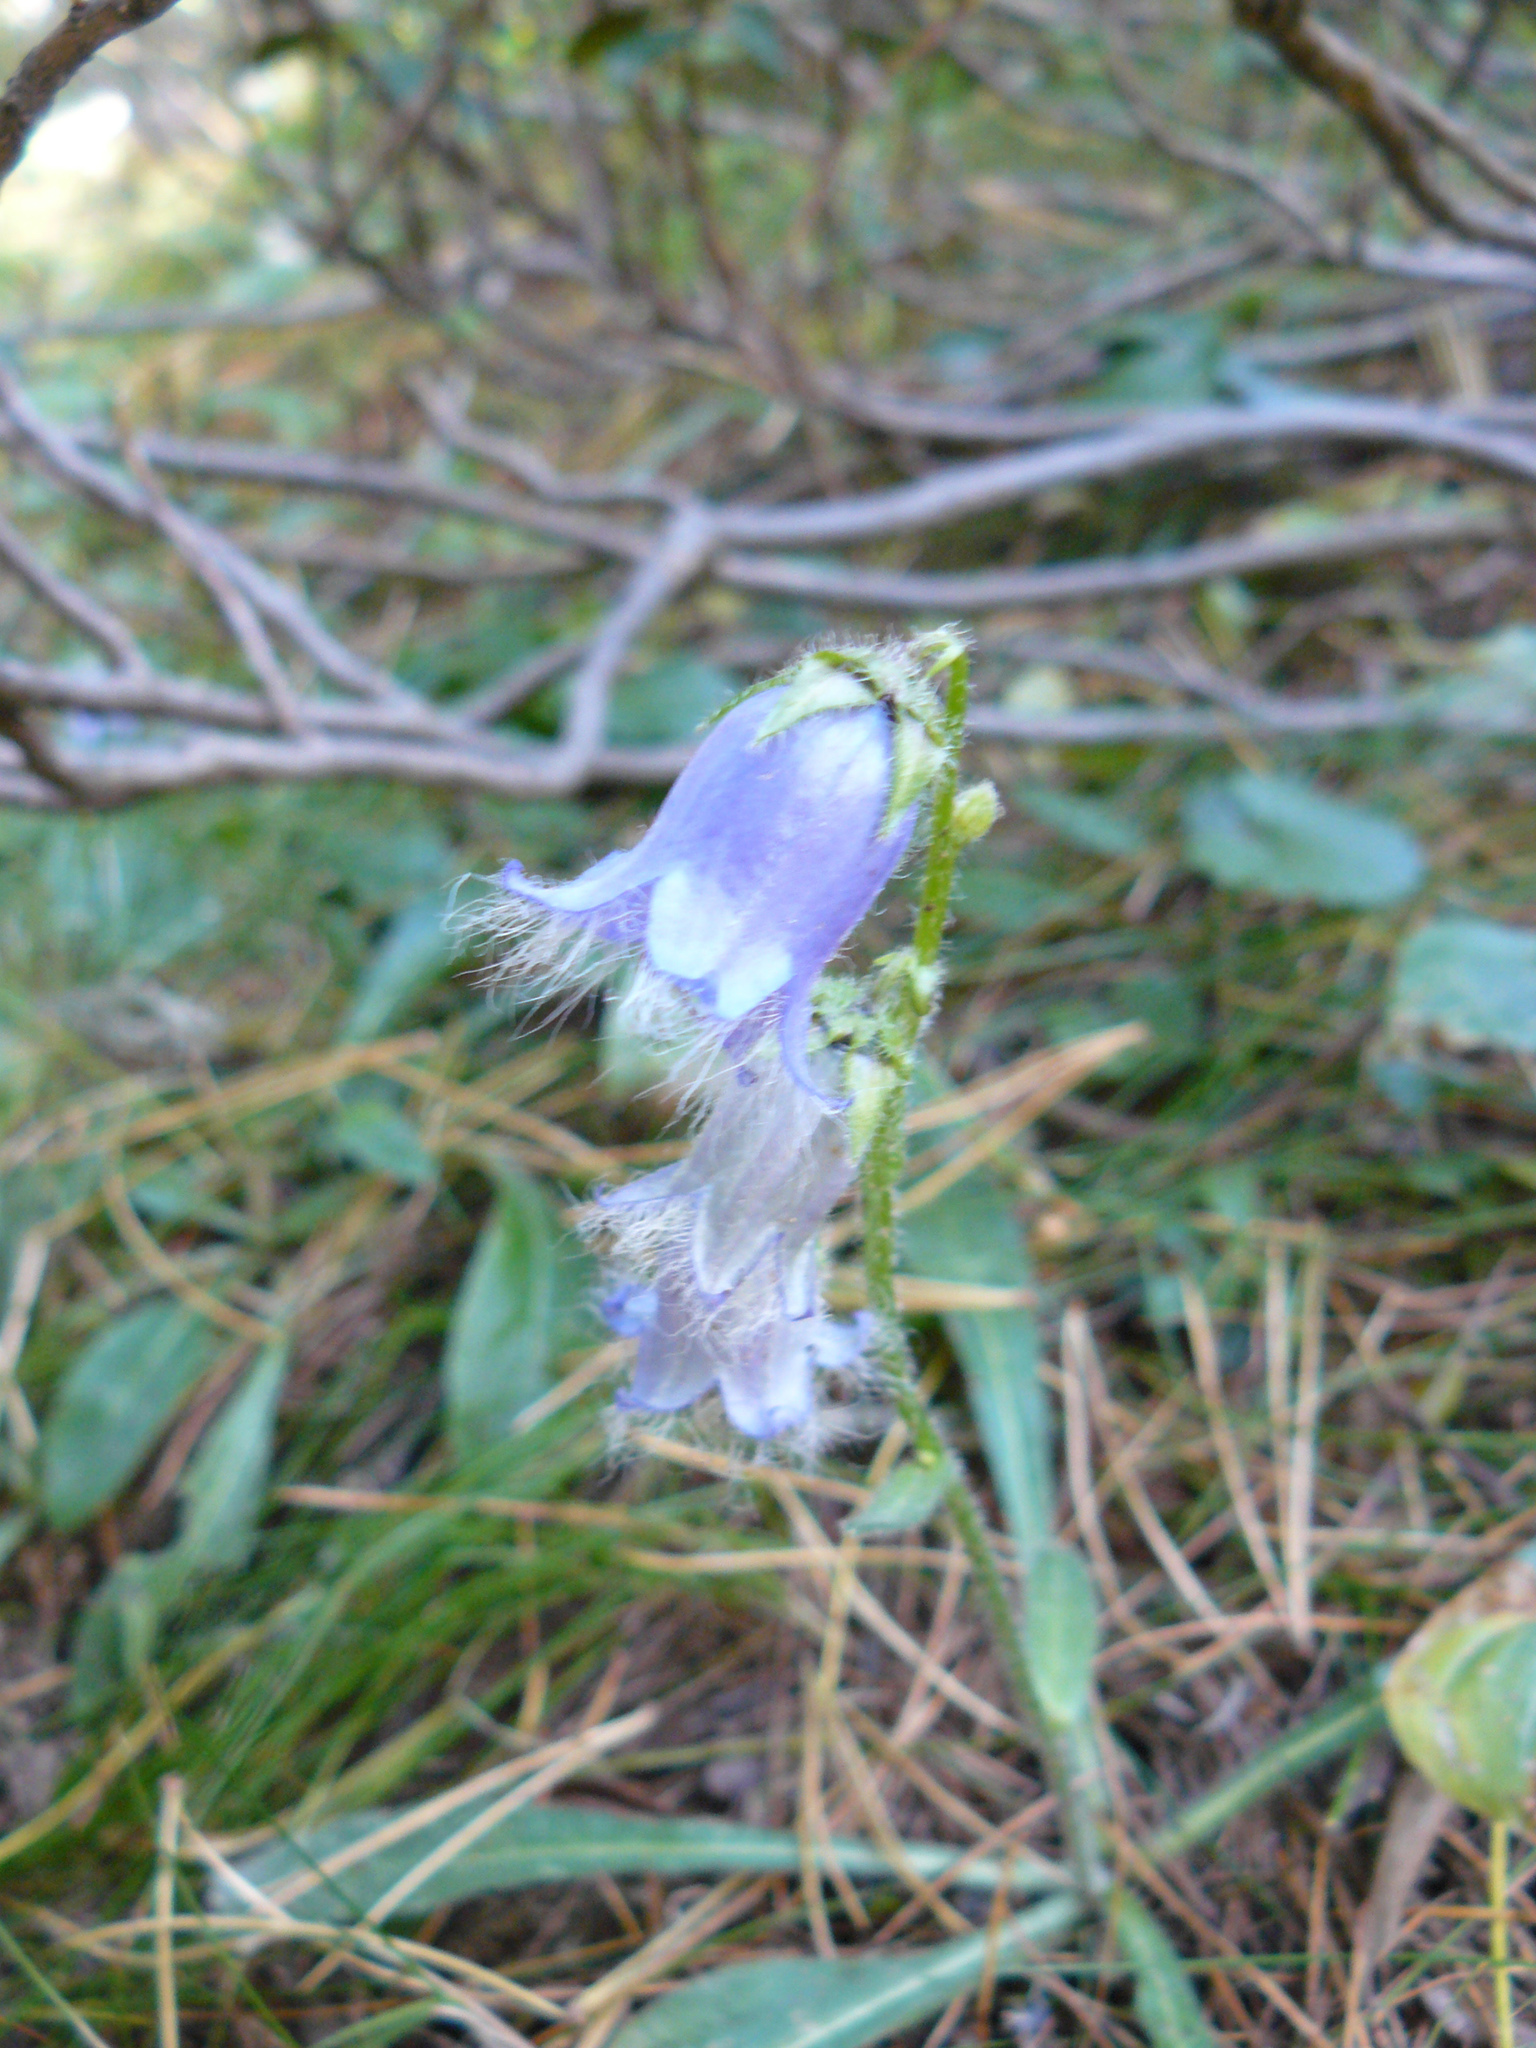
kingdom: Plantae
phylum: Tracheophyta
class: Magnoliopsida
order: Asterales
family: Campanulaceae
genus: Campanula
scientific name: Campanula barbata
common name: Bearded bellflower
